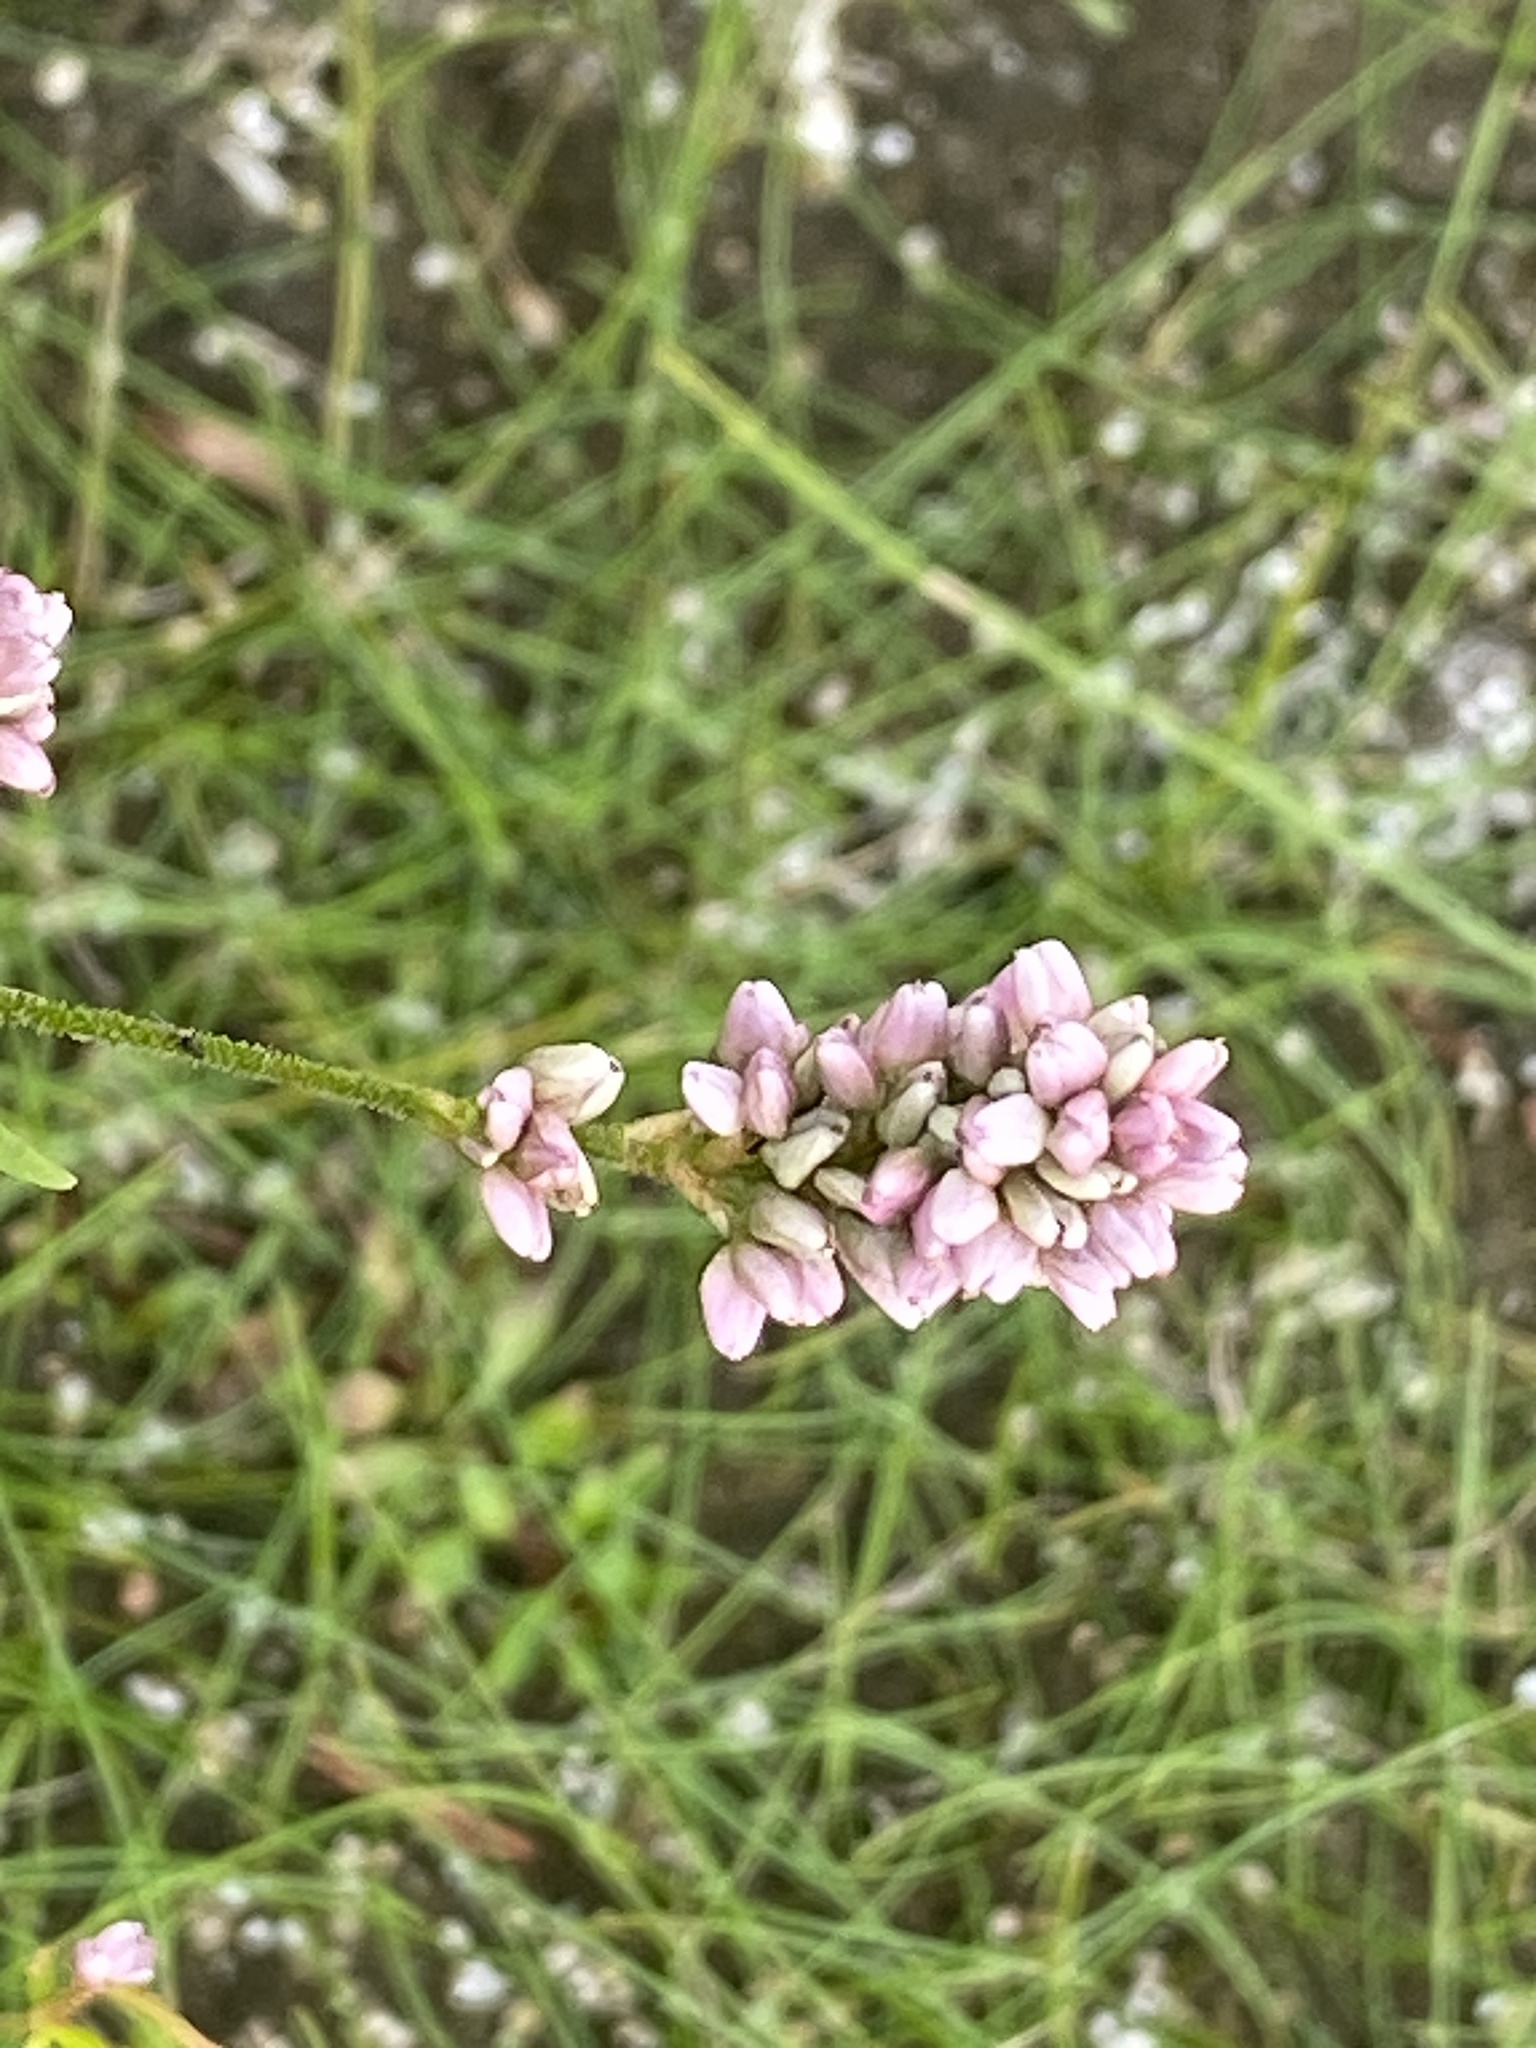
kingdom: Plantae
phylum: Tracheophyta
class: Magnoliopsida
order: Caryophyllales
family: Polygonaceae
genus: Persicaria
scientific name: Persicaria pensylvanica
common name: Pinkweed
